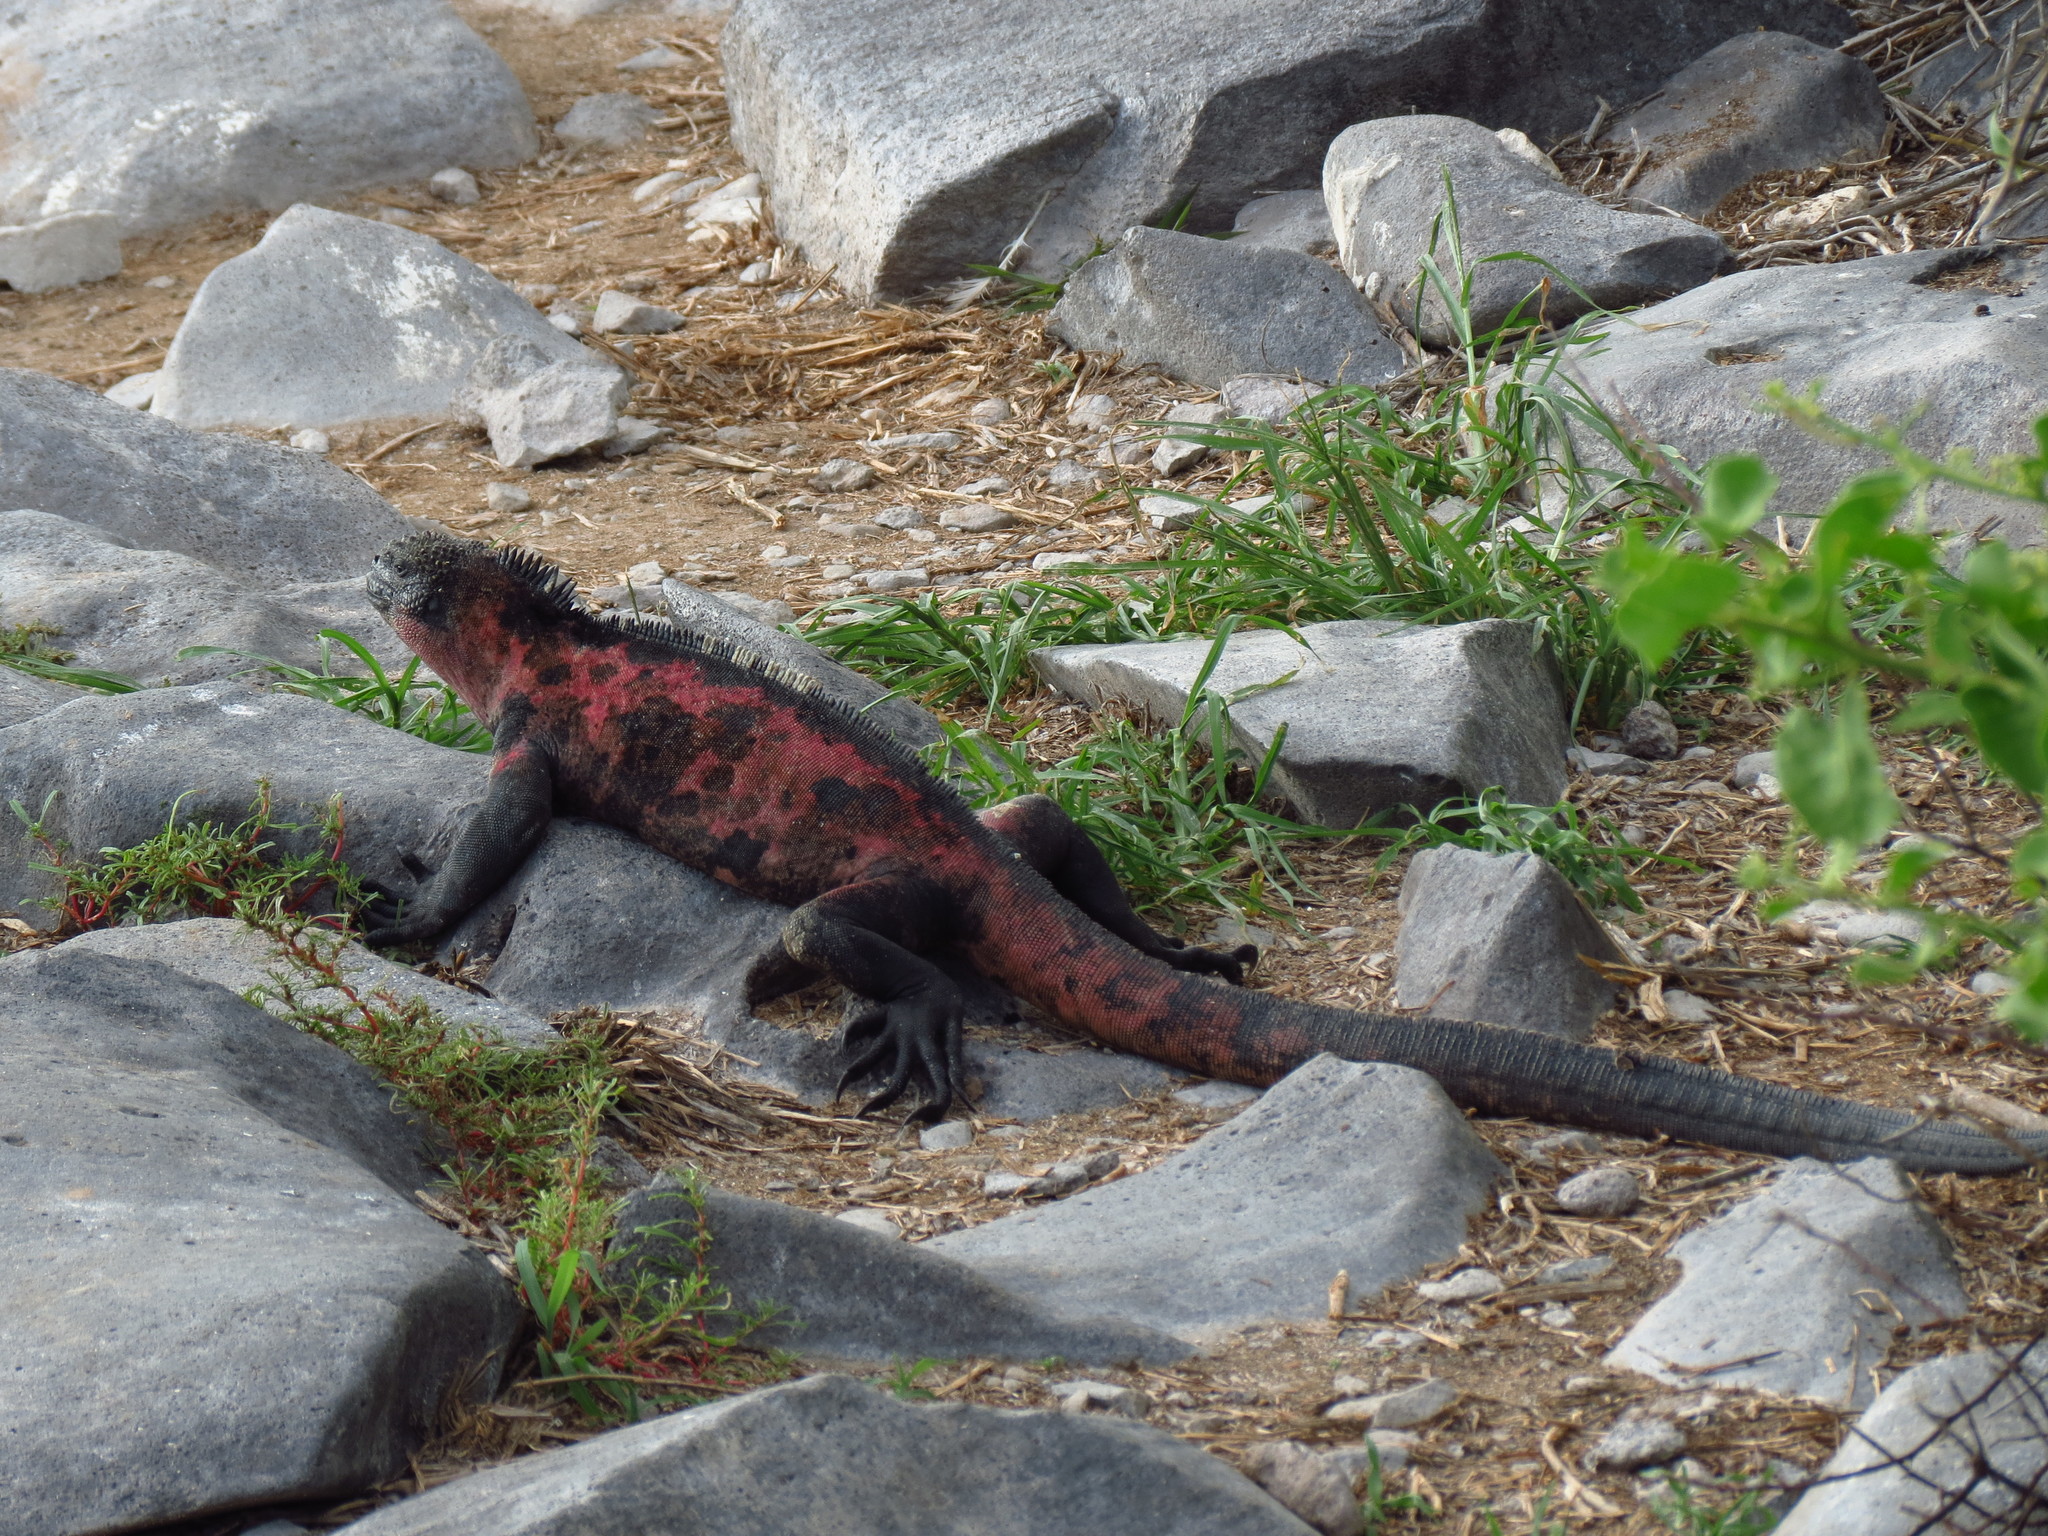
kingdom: Animalia
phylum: Chordata
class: Squamata
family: Iguanidae
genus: Amblyrhynchus
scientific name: Amblyrhynchus cristatus
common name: Marine iguana
